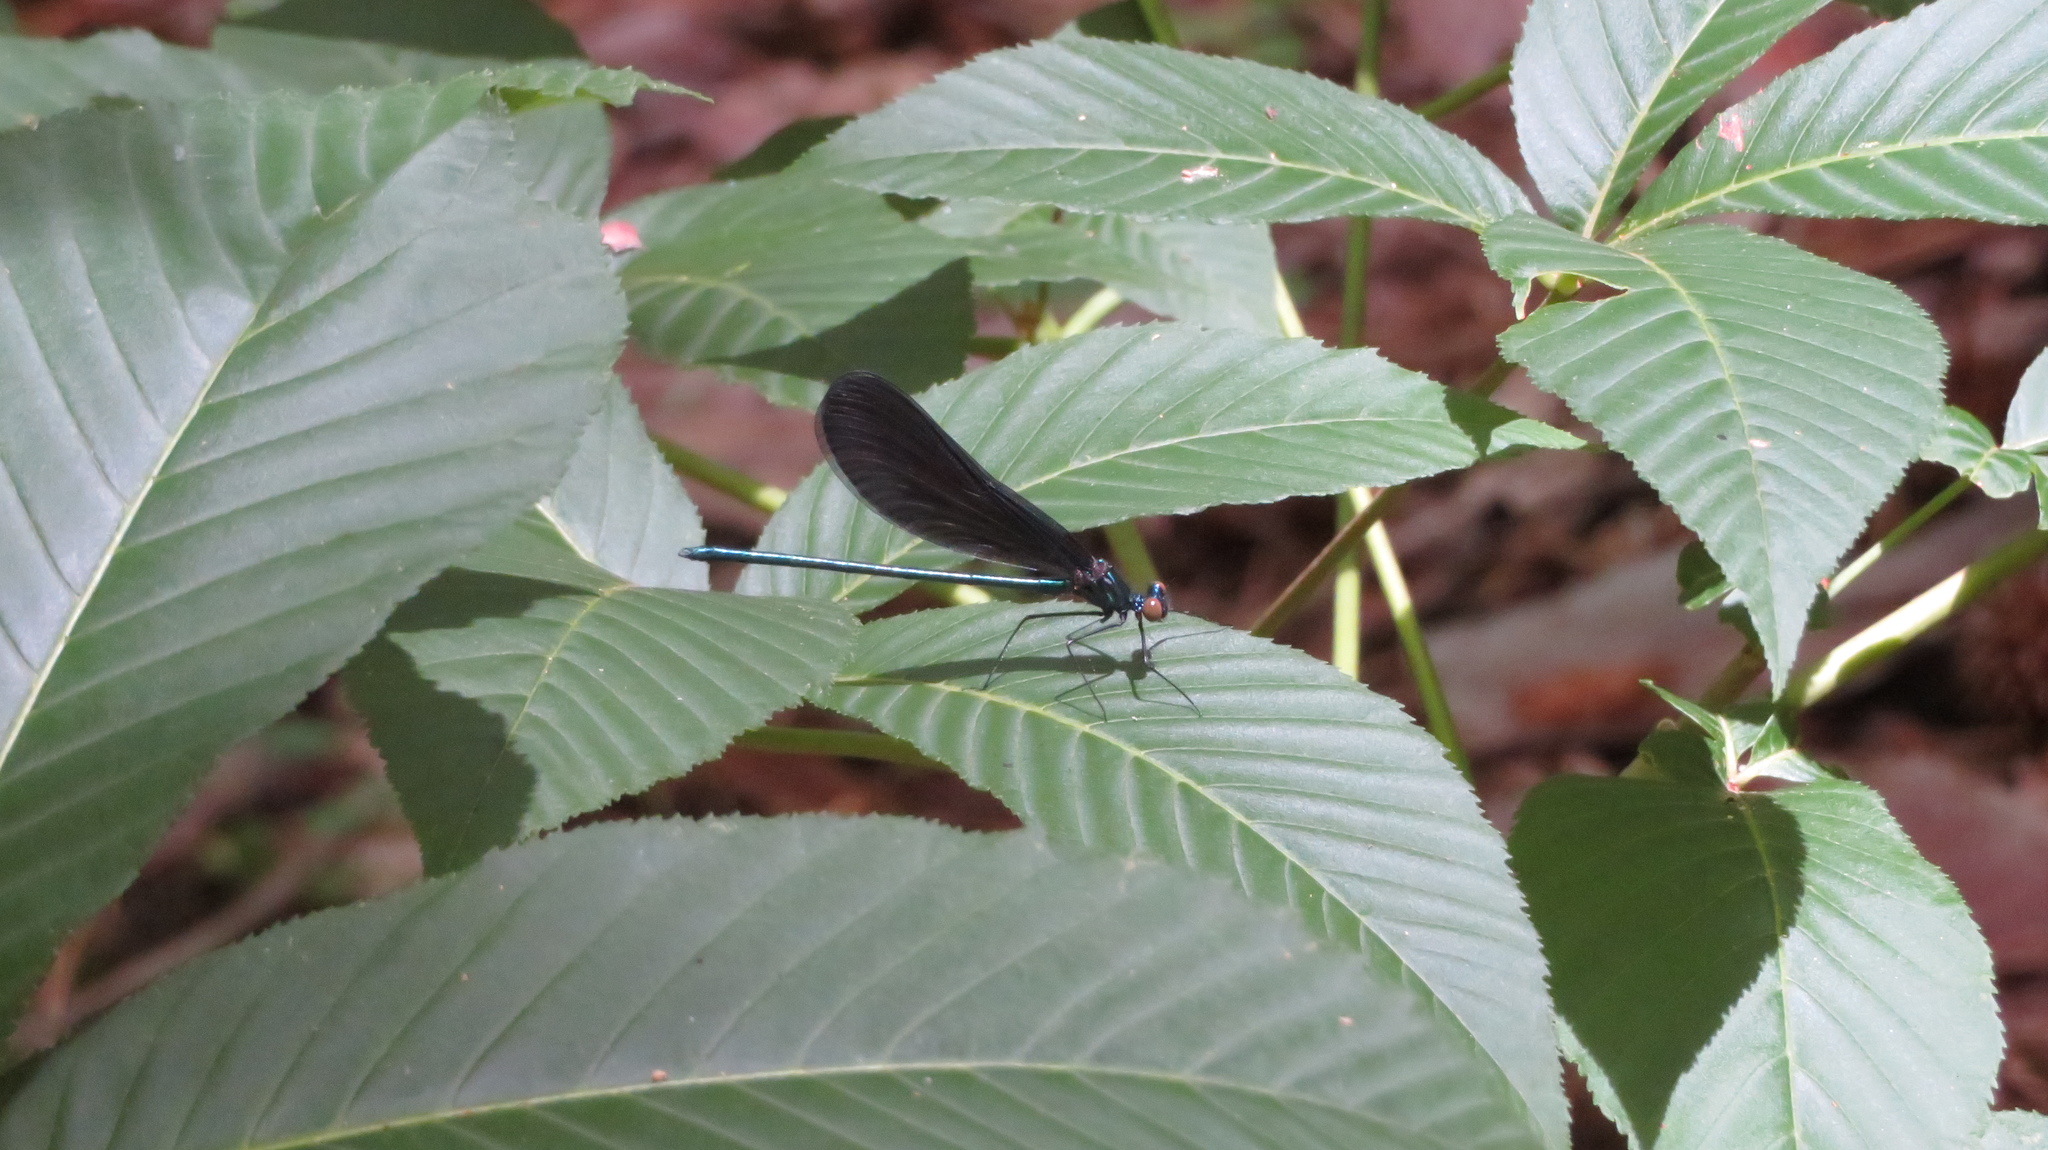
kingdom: Animalia
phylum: Arthropoda
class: Insecta
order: Odonata
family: Calopterygidae
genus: Calopteryx
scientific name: Calopteryx maculata
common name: Ebony jewelwing
